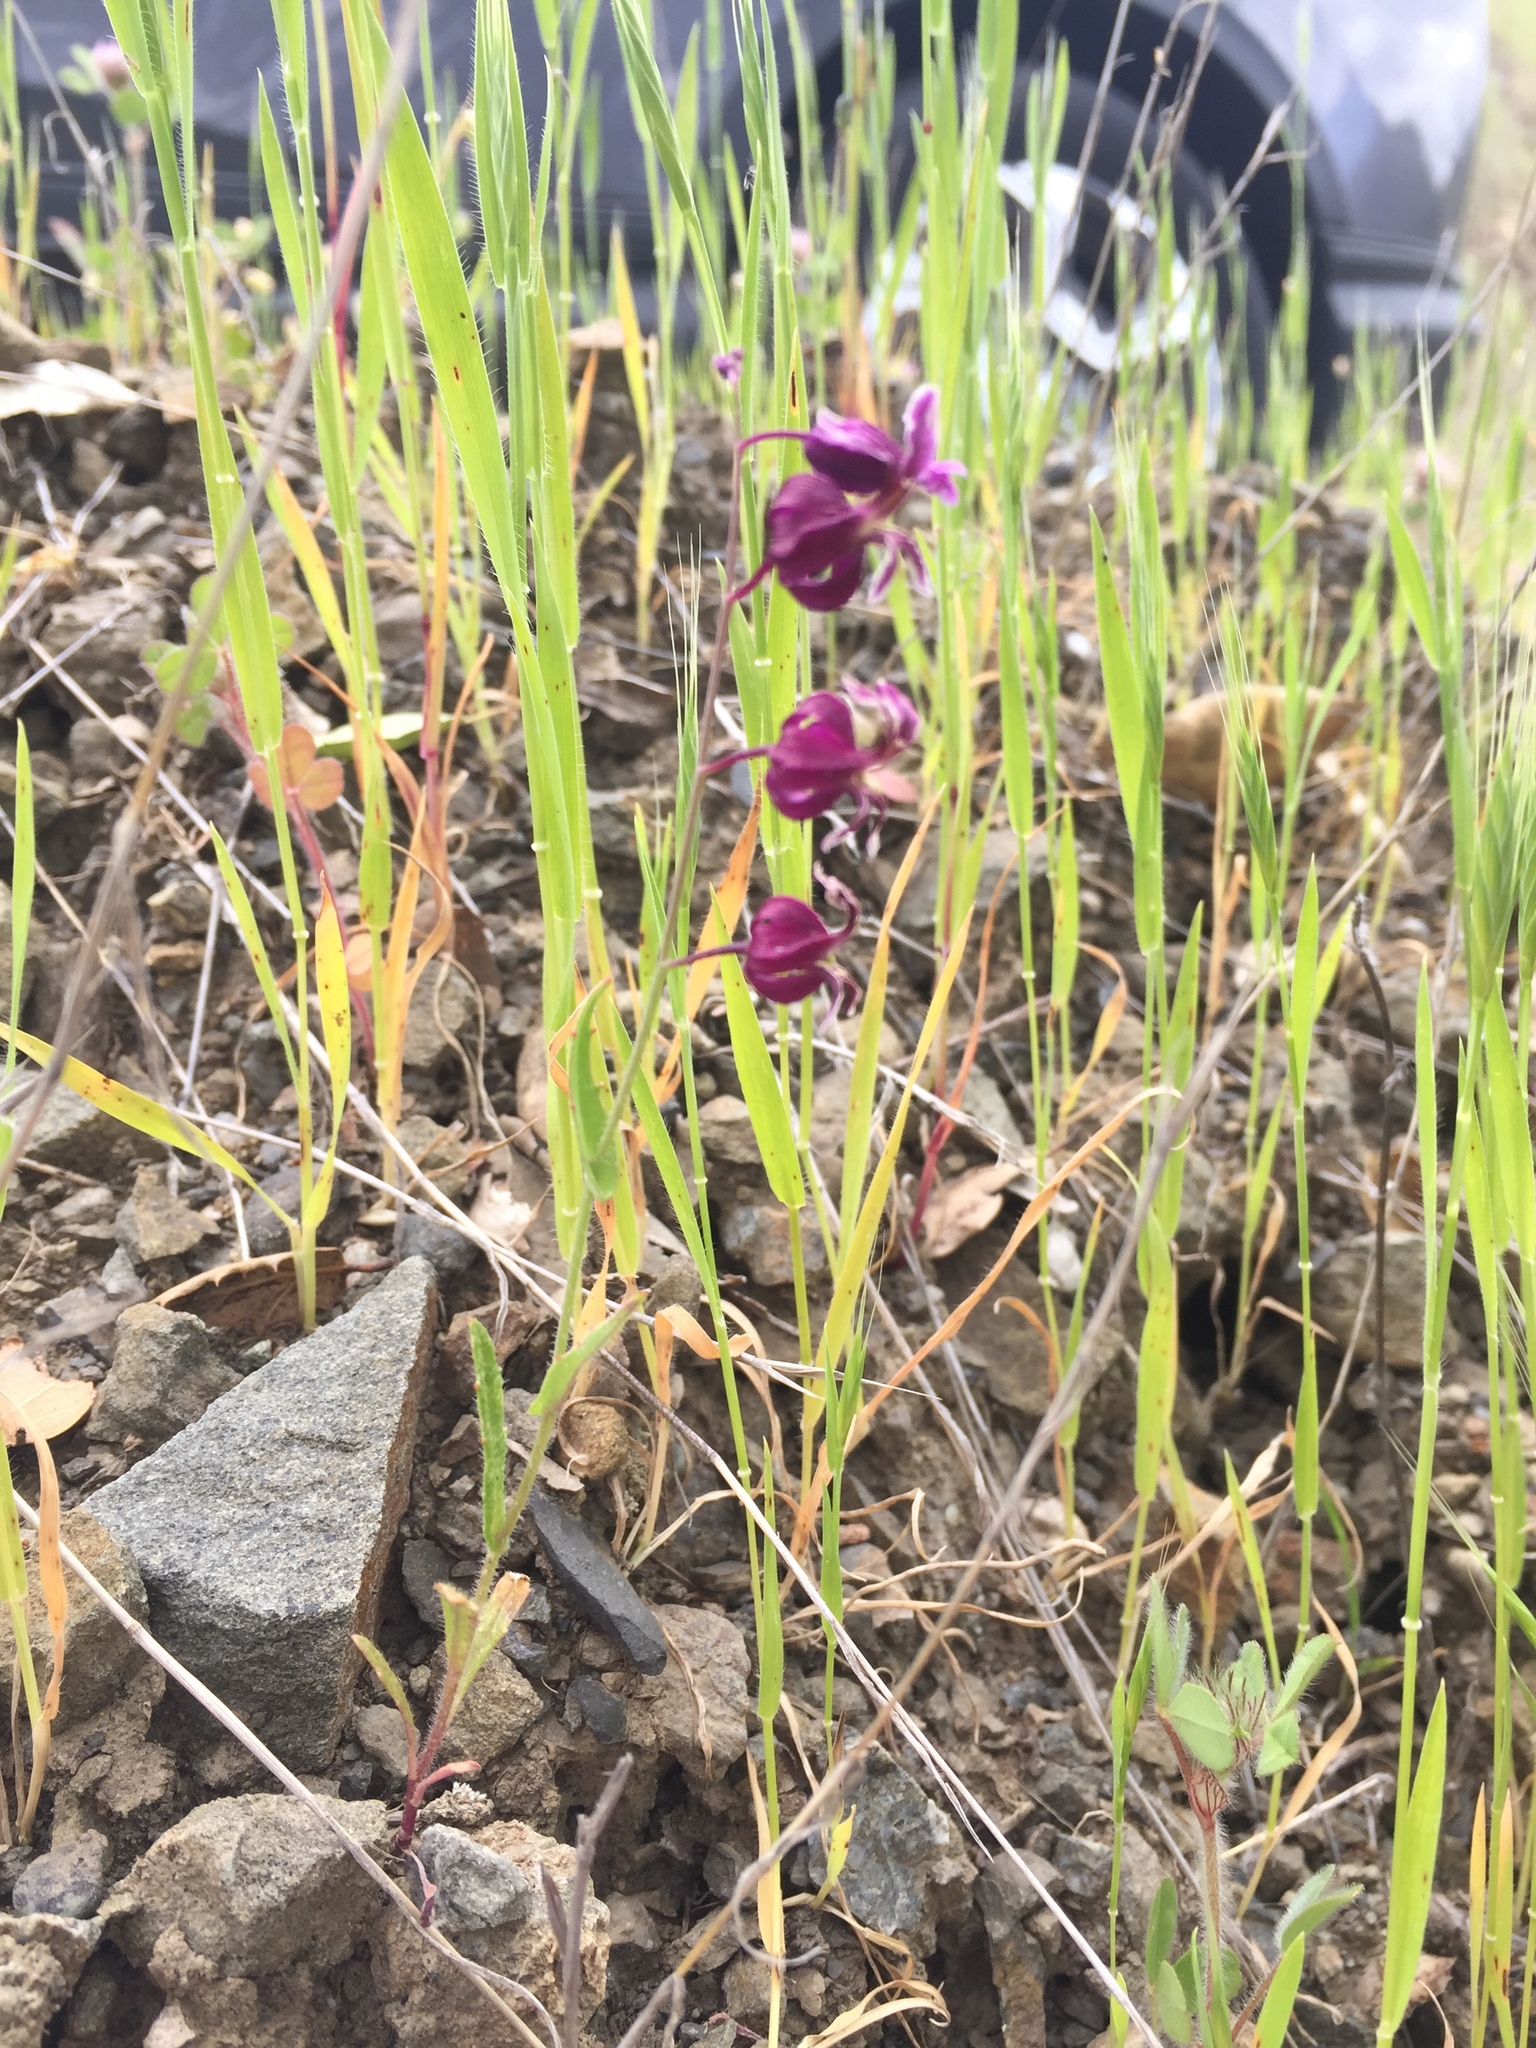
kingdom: Plantae
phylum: Tracheophyta
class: Magnoliopsida
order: Brassicales
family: Brassicaceae
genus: Streptanthus
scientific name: Streptanthus glandulosus
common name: Jewel-flower
